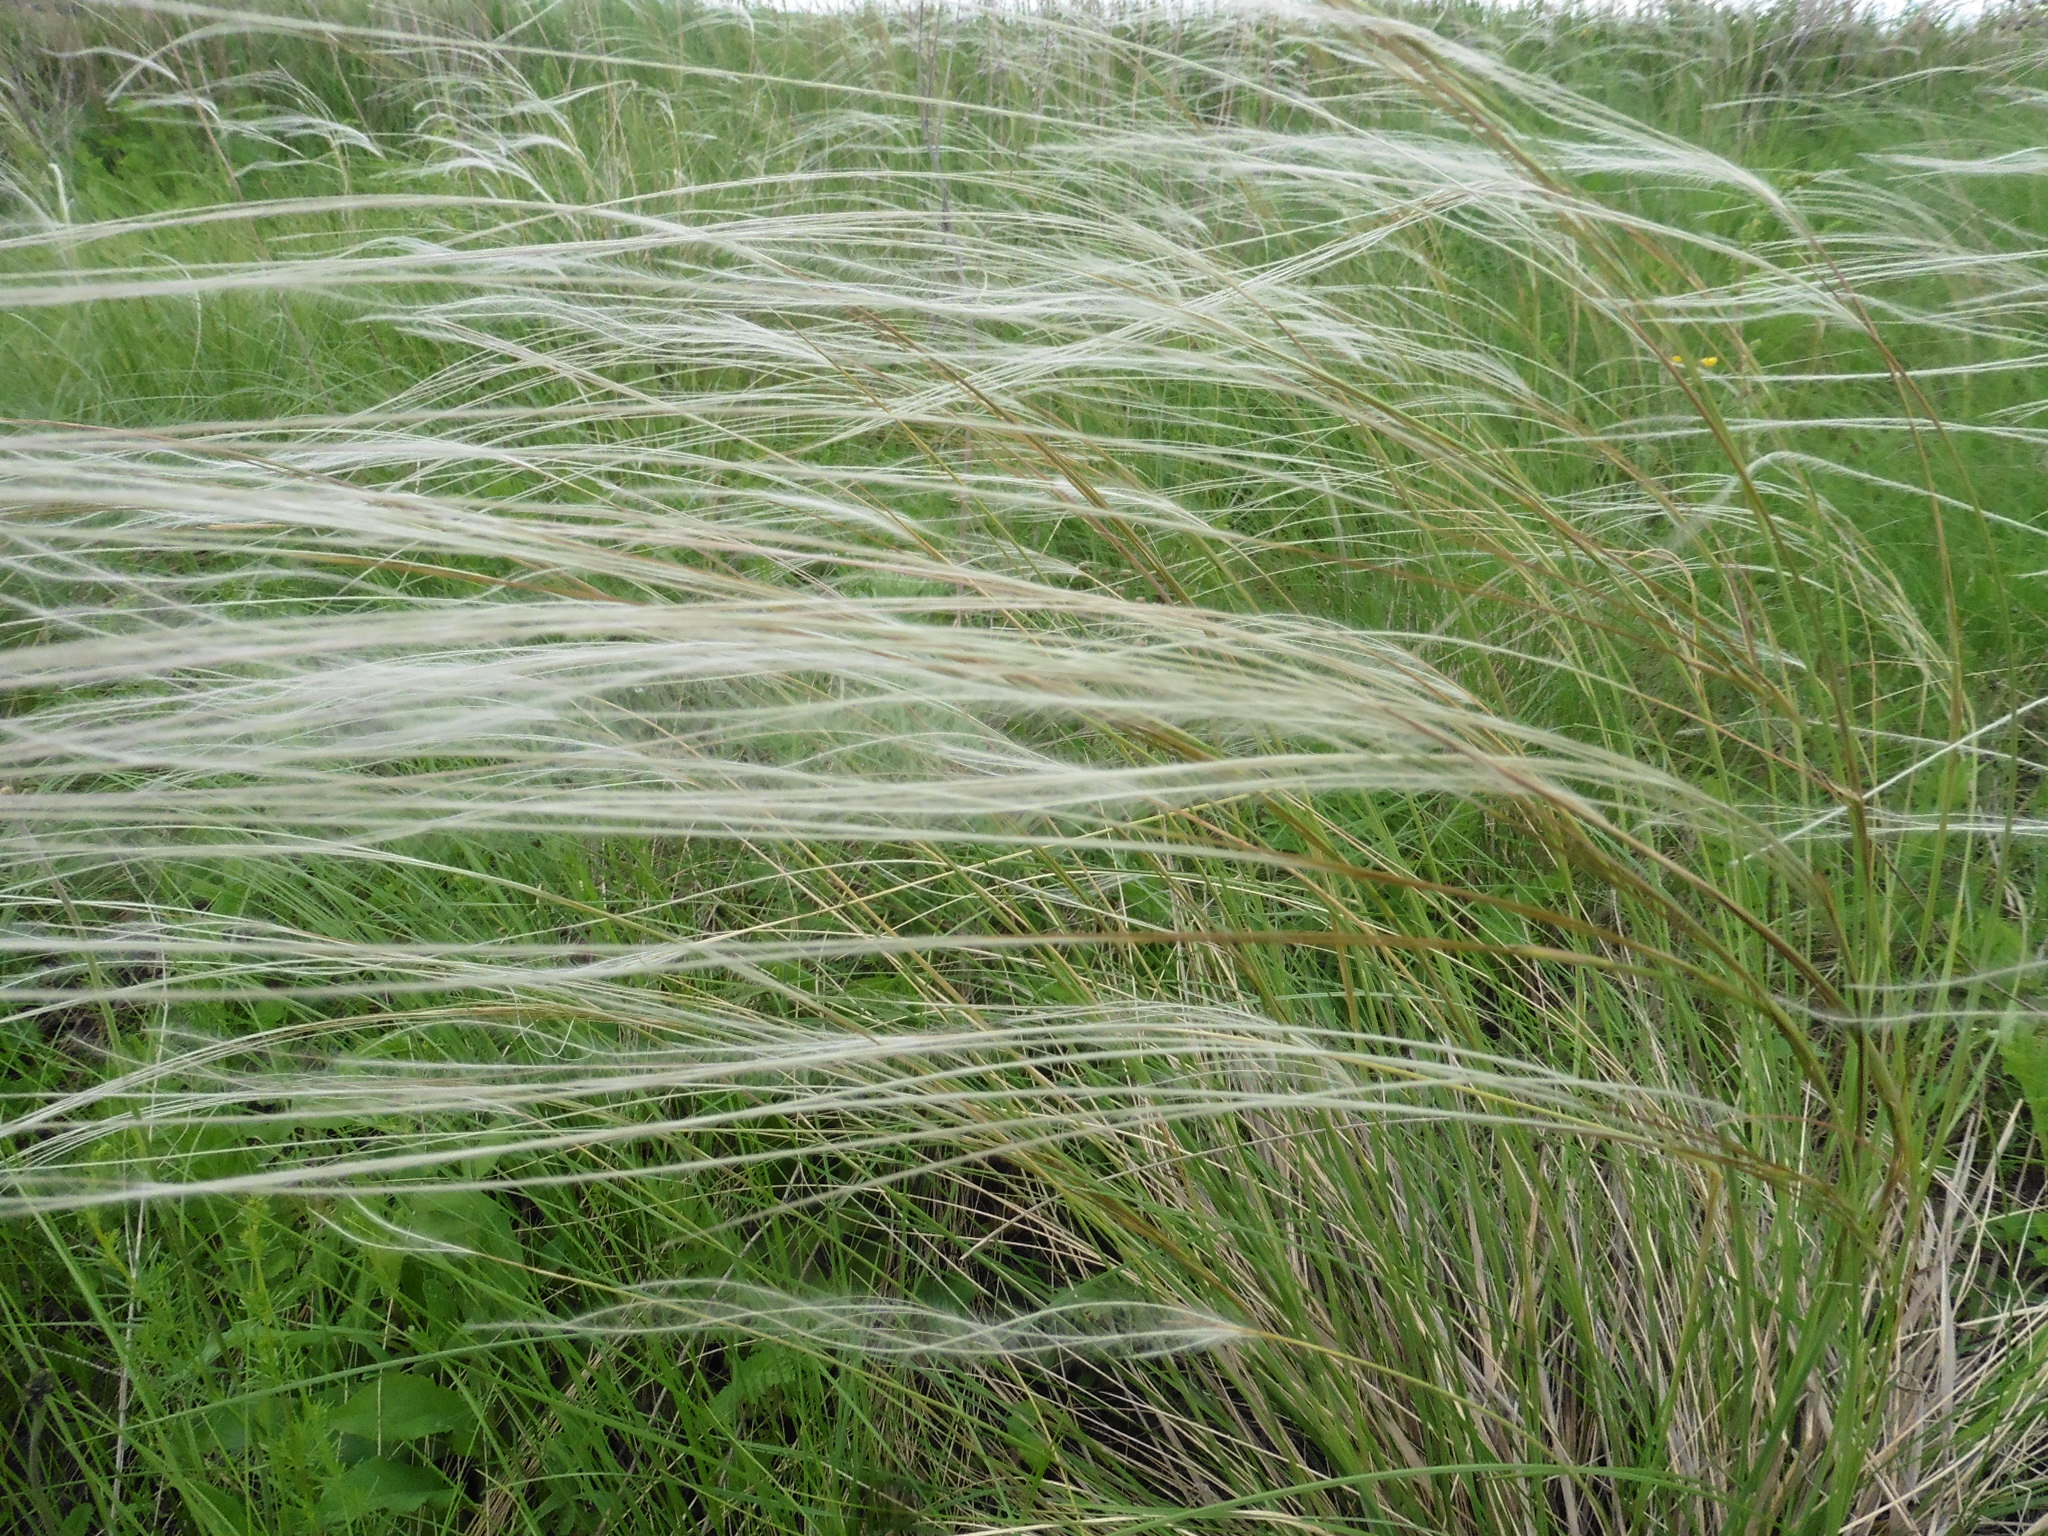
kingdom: Plantae
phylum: Tracheophyta
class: Liliopsida
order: Poales
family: Poaceae
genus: Stipa
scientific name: Stipa pennata
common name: European feather grass
